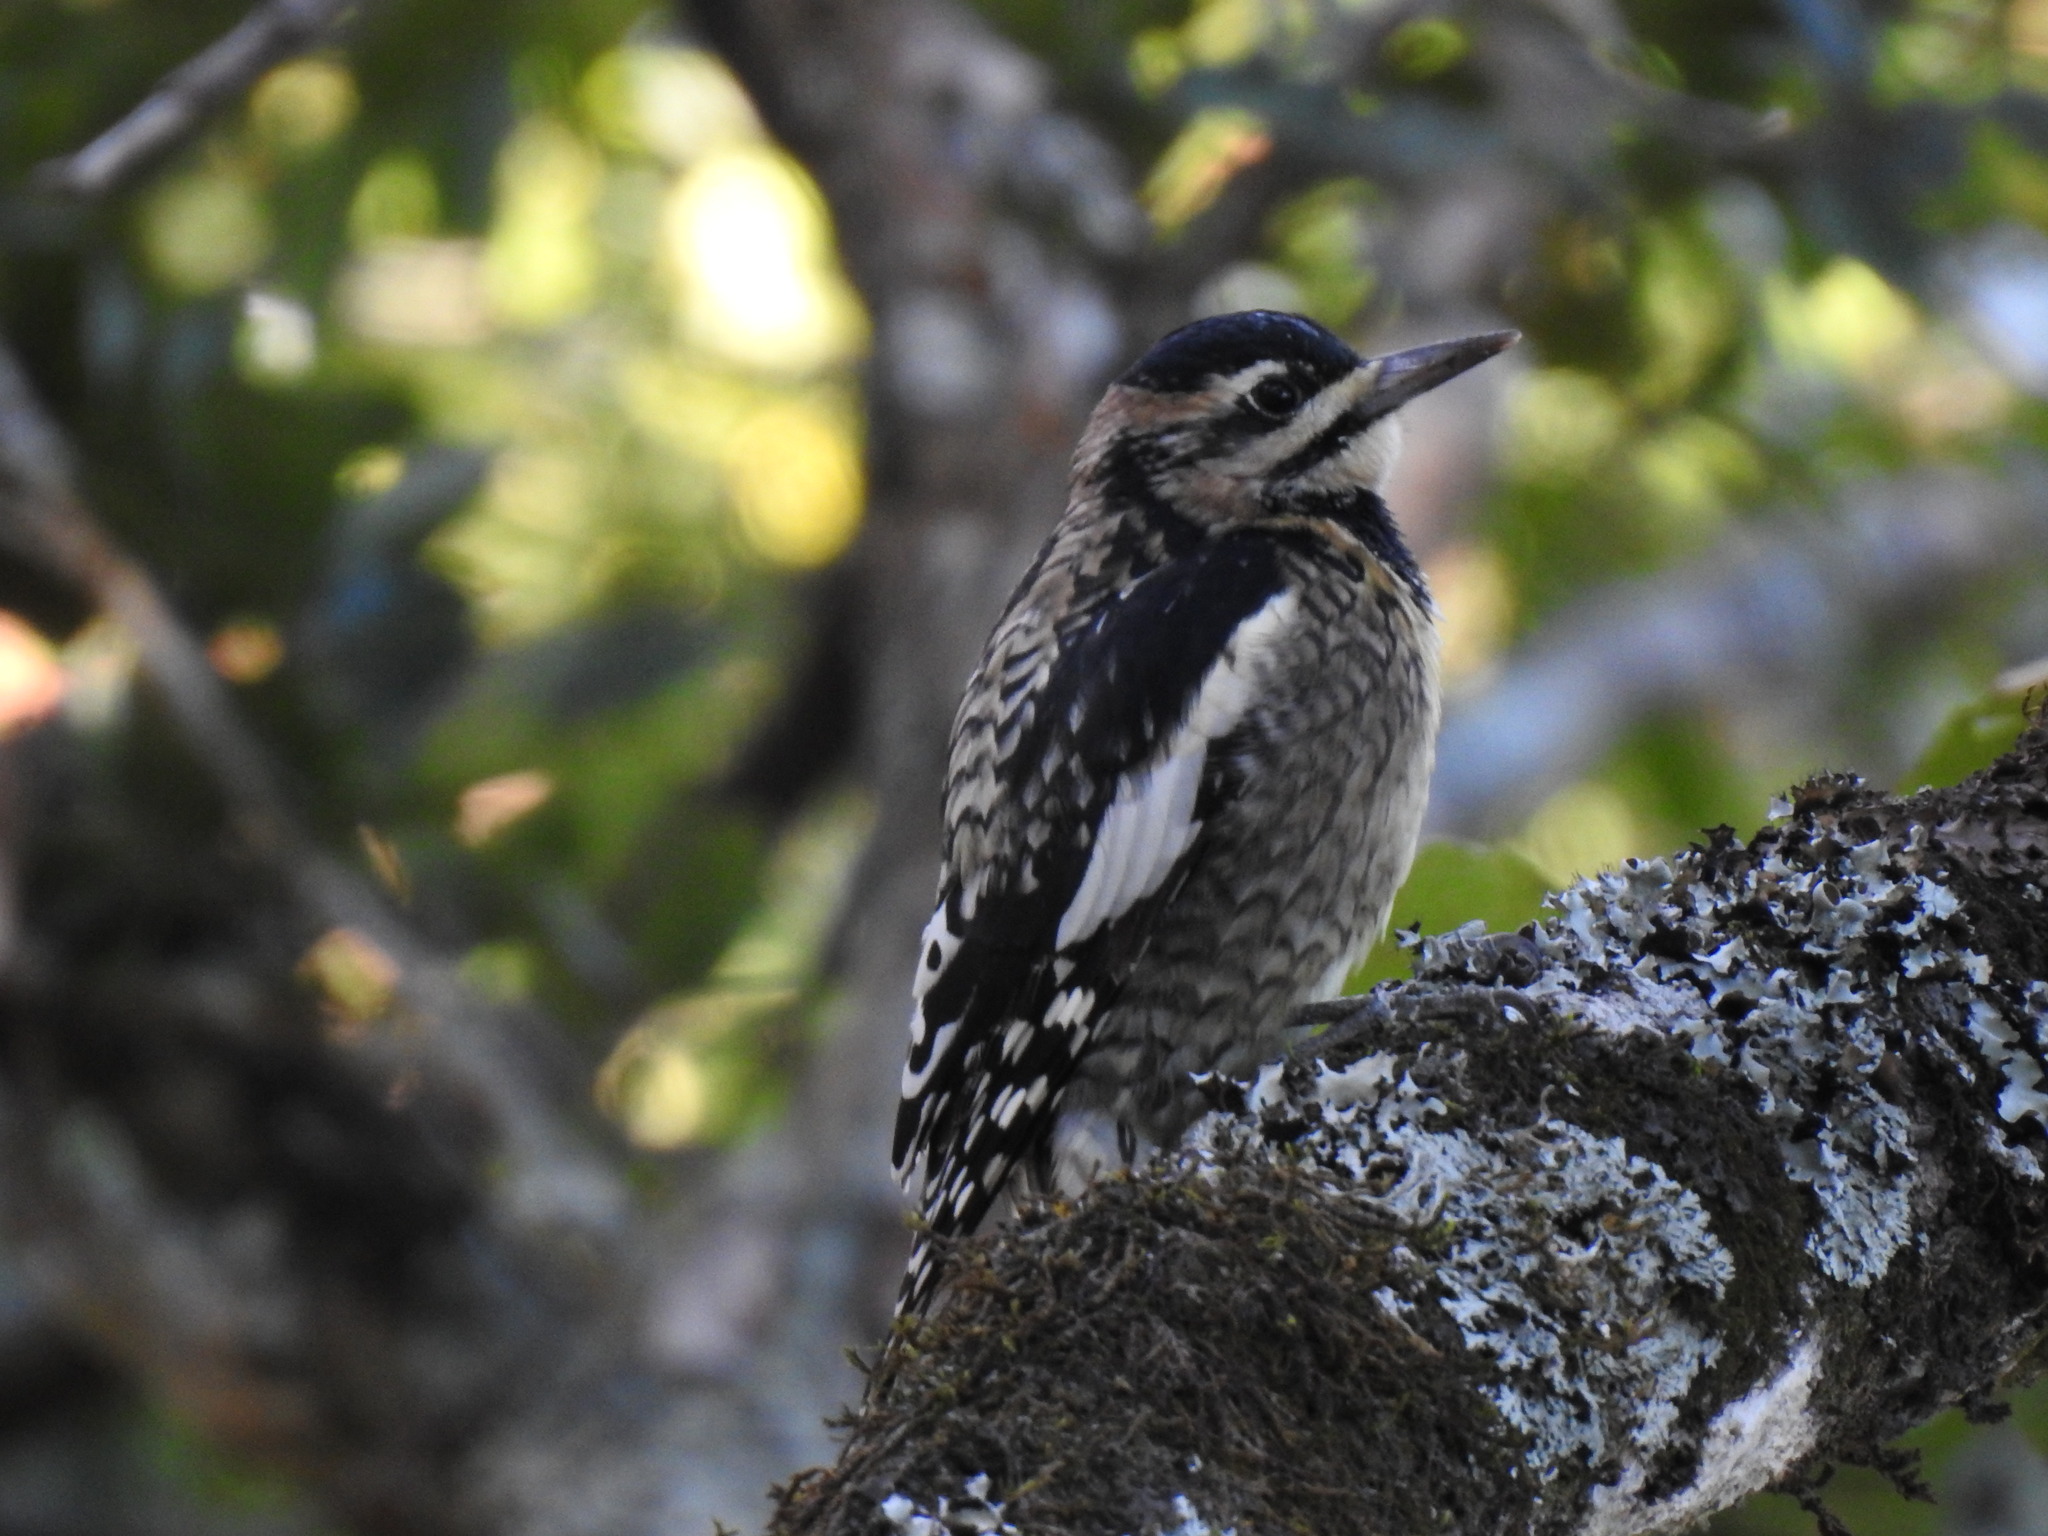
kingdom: Animalia
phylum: Chordata
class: Aves
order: Piciformes
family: Picidae
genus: Sphyrapicus
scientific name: Sphyrapicus varius
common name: Yellow-bellied sapsucker
